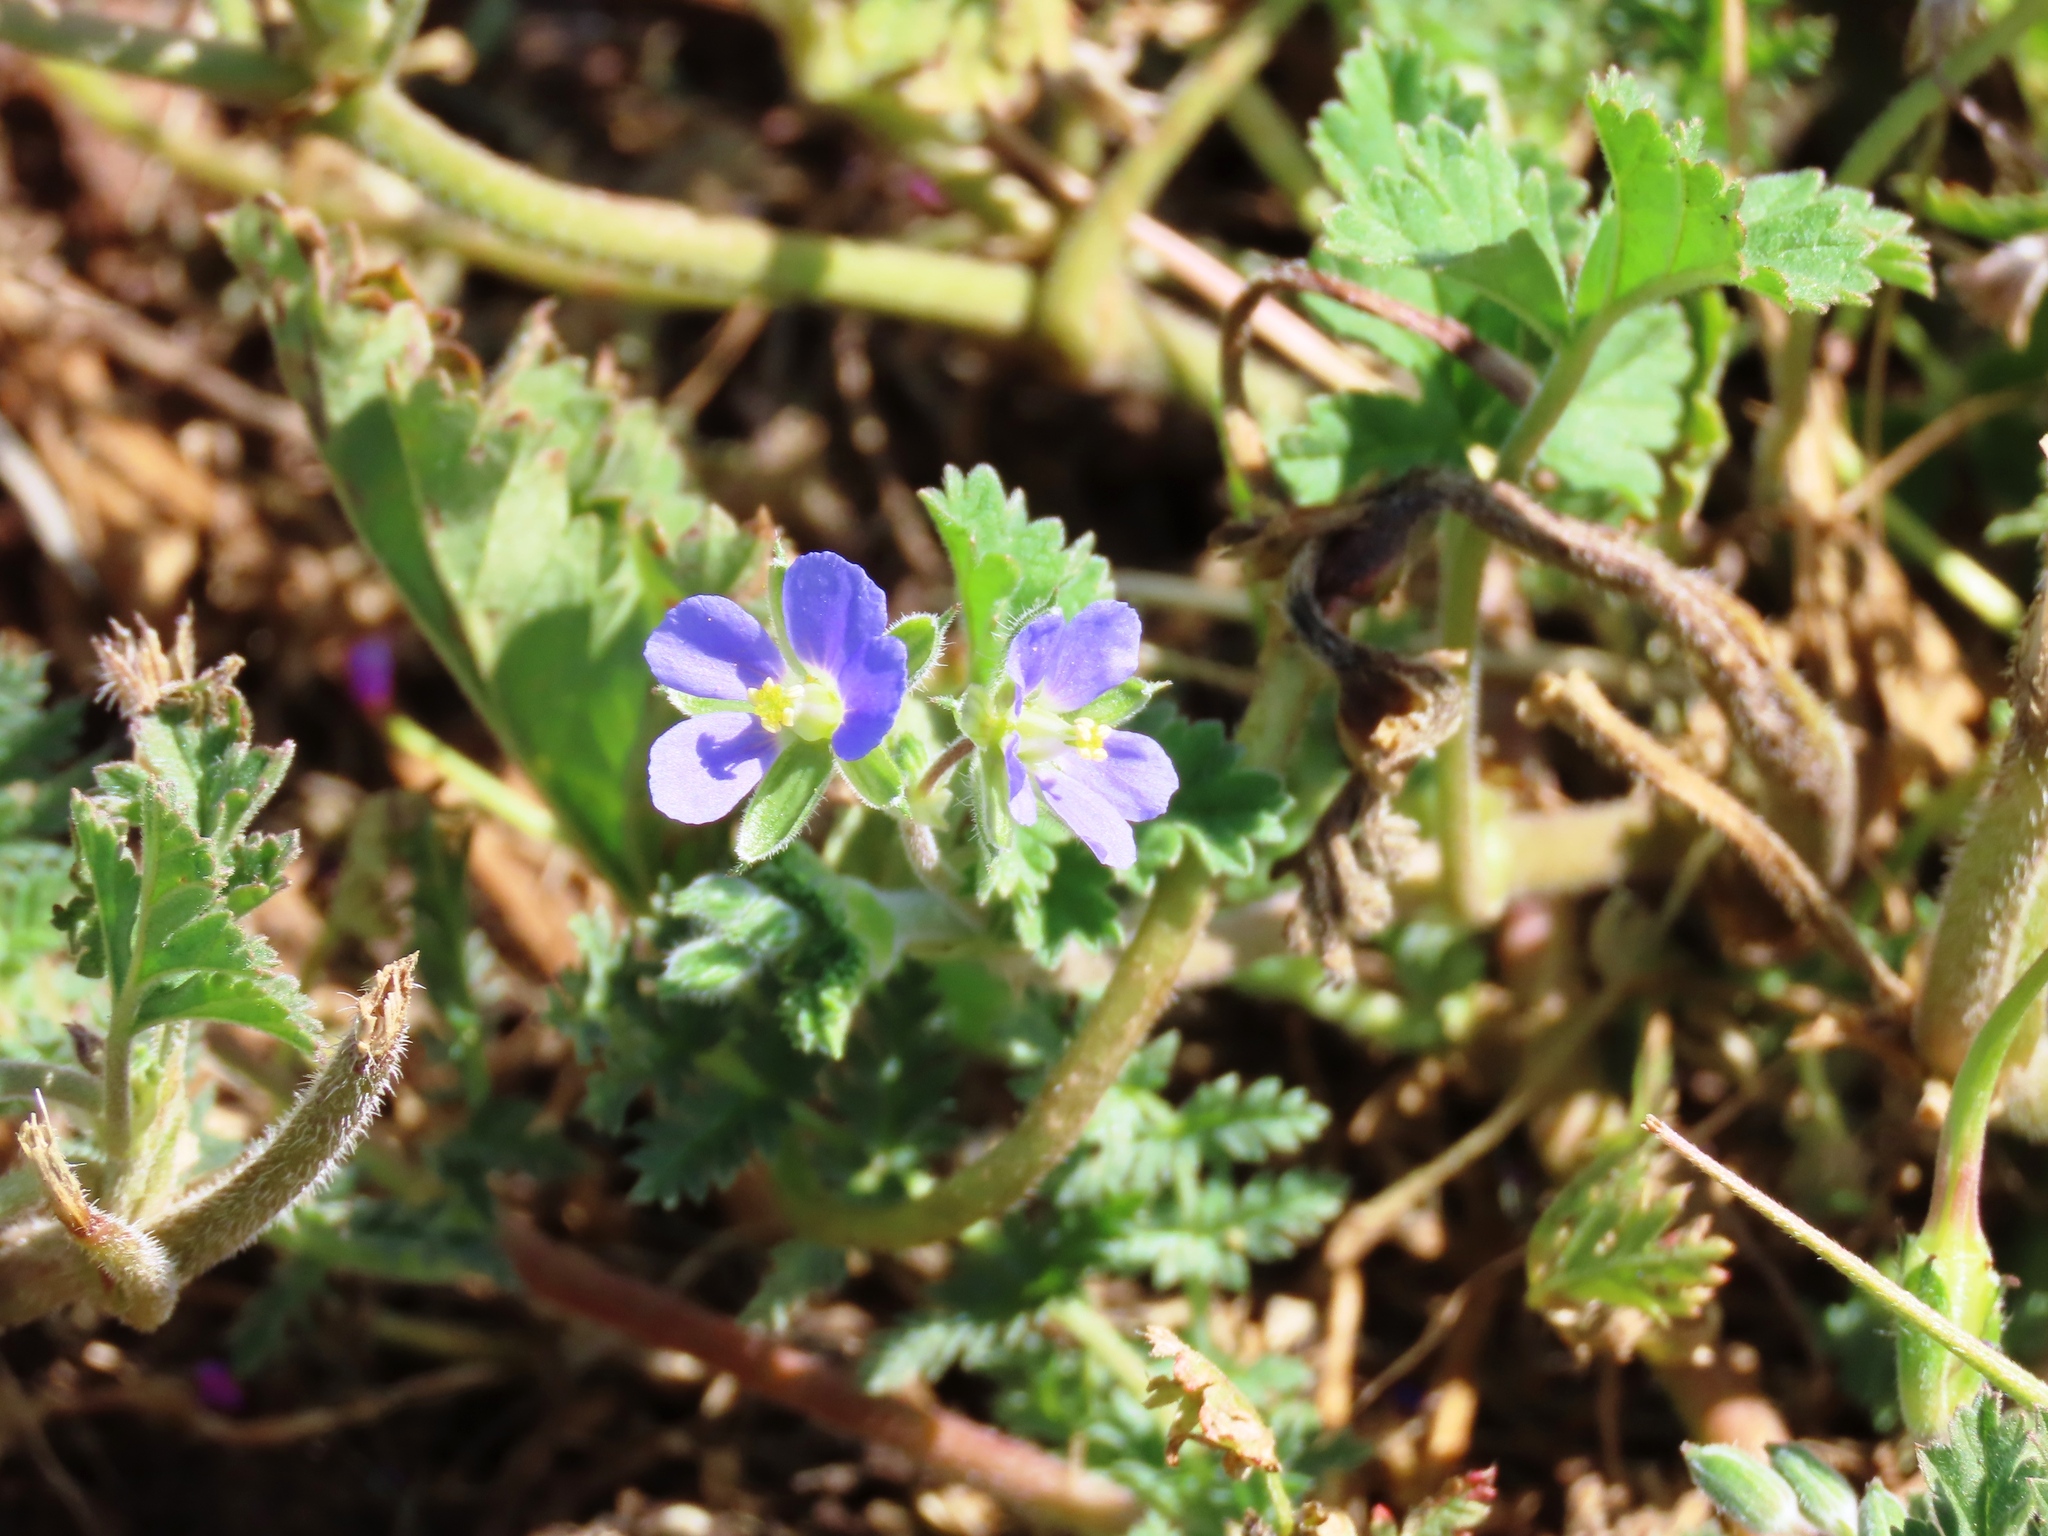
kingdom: Plantae
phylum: Tracheophyta
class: Magnoliopsida
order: Geraniales
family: Geraniaceae
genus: Erodium
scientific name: Erodium crinitum
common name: Eastern stork's-bill
